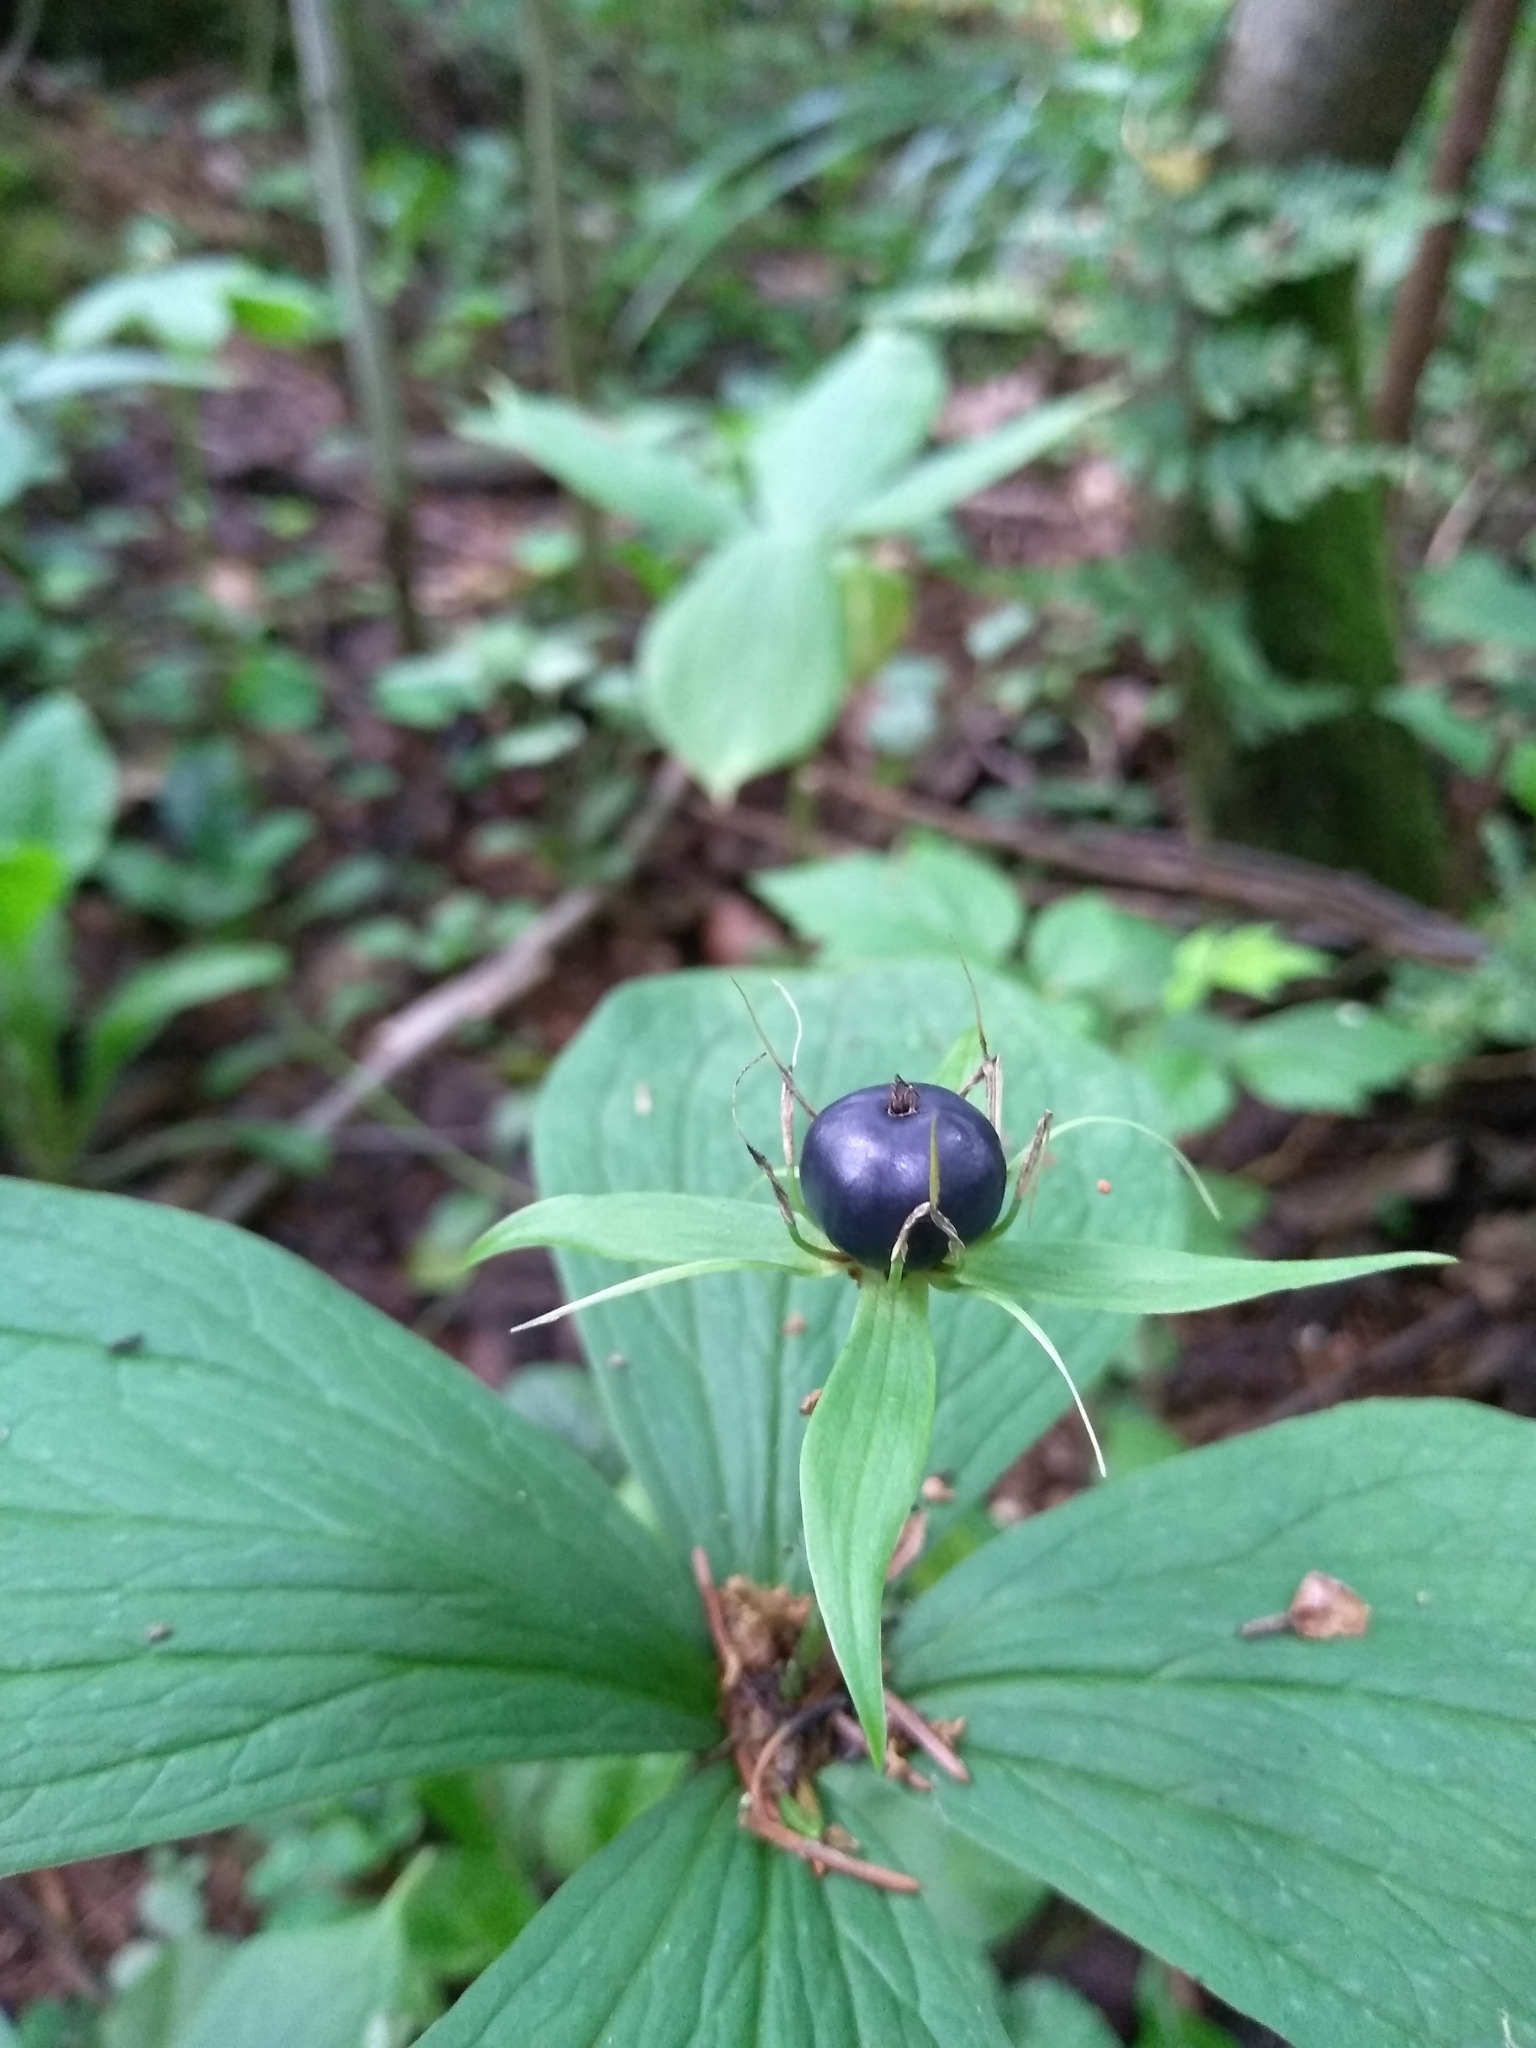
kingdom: Plantae
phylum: Tracheophyta
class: Liliopsida
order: Liliales
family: Melanthiaceae
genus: Paris
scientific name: Paris quadrifolia
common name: Herb-paris
